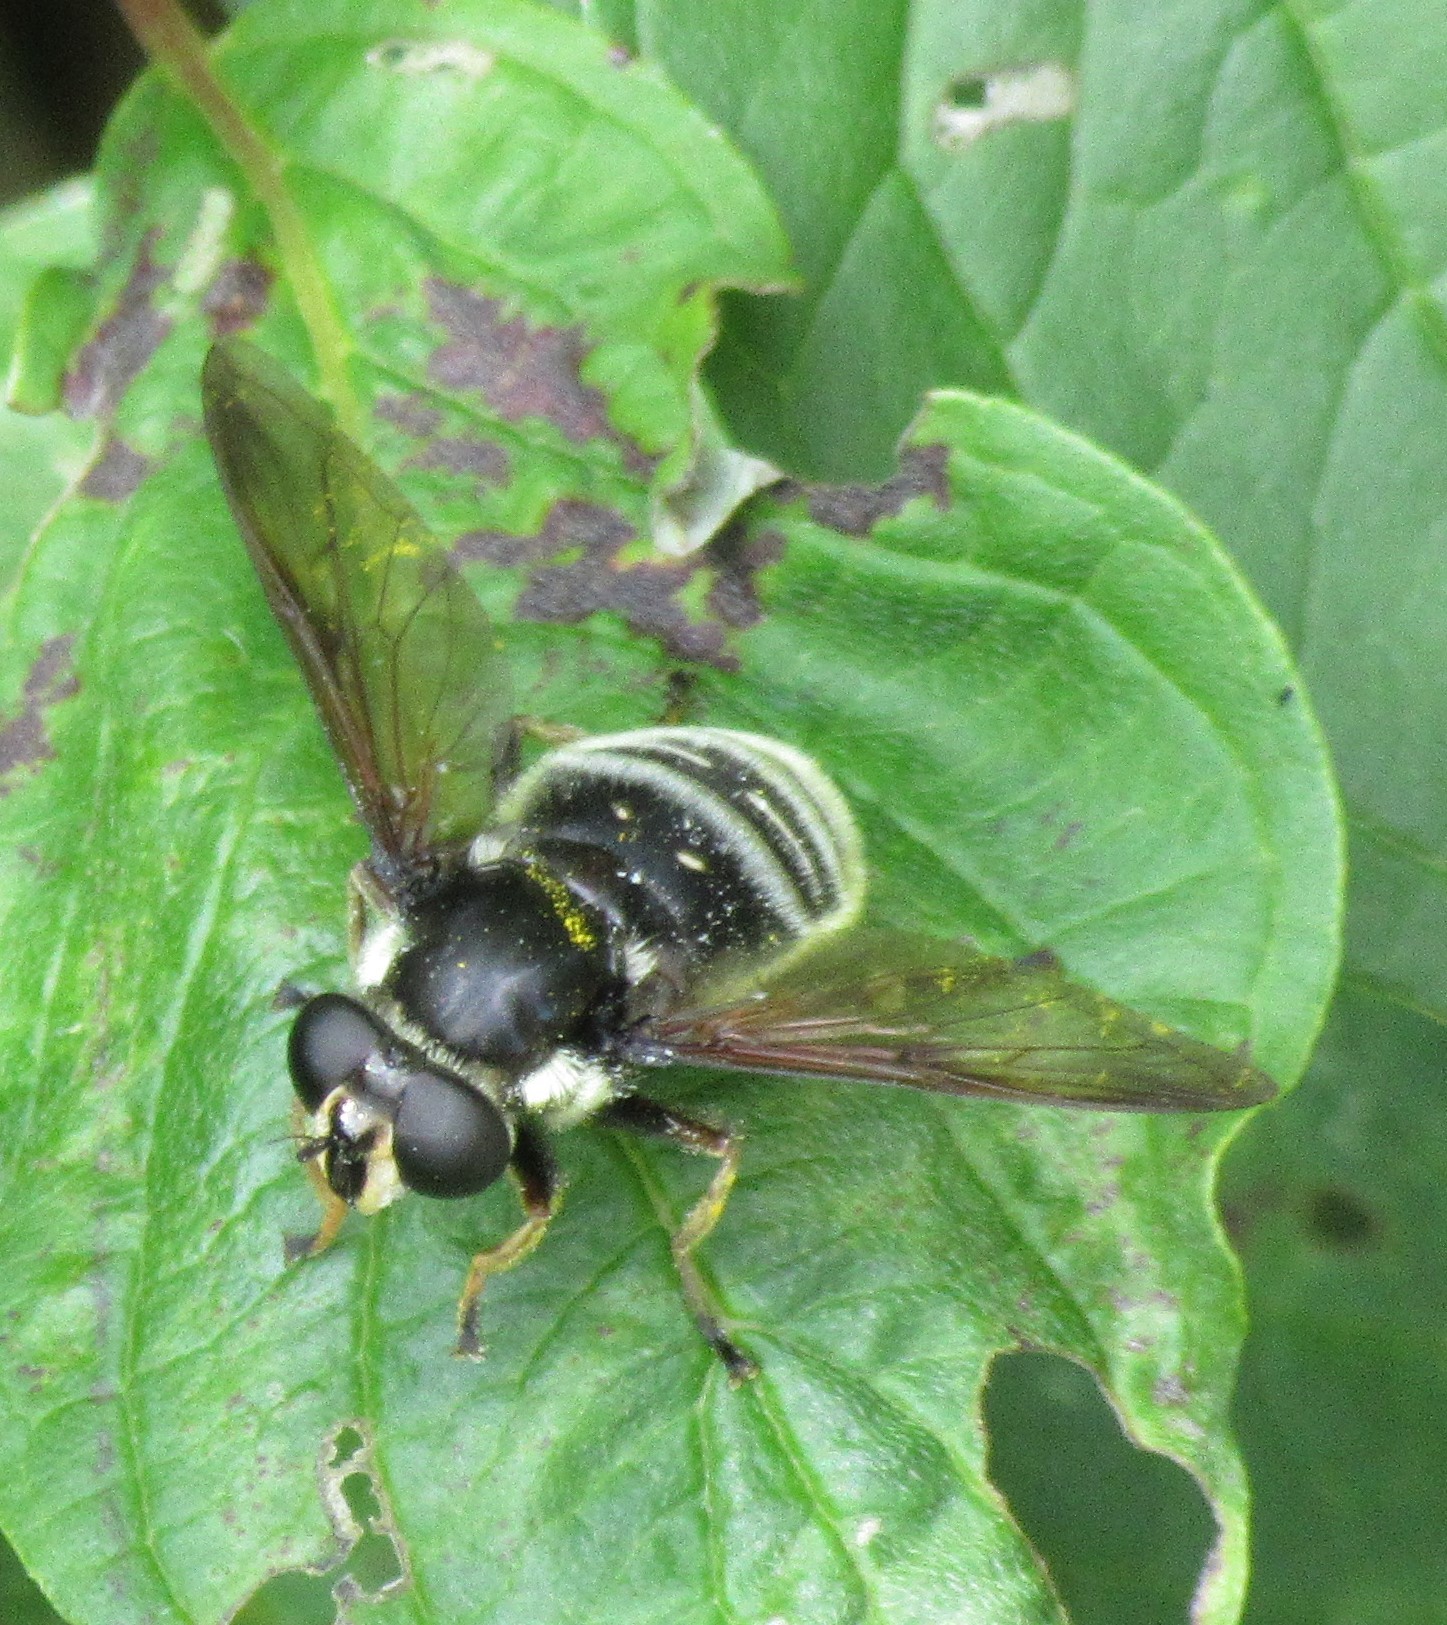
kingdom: Animalia
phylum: Arthropoda
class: Insecta
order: Diptera
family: Syrphidae
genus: Sericomyia
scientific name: Sericomyia militaris
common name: Narrow-banded pond fly
